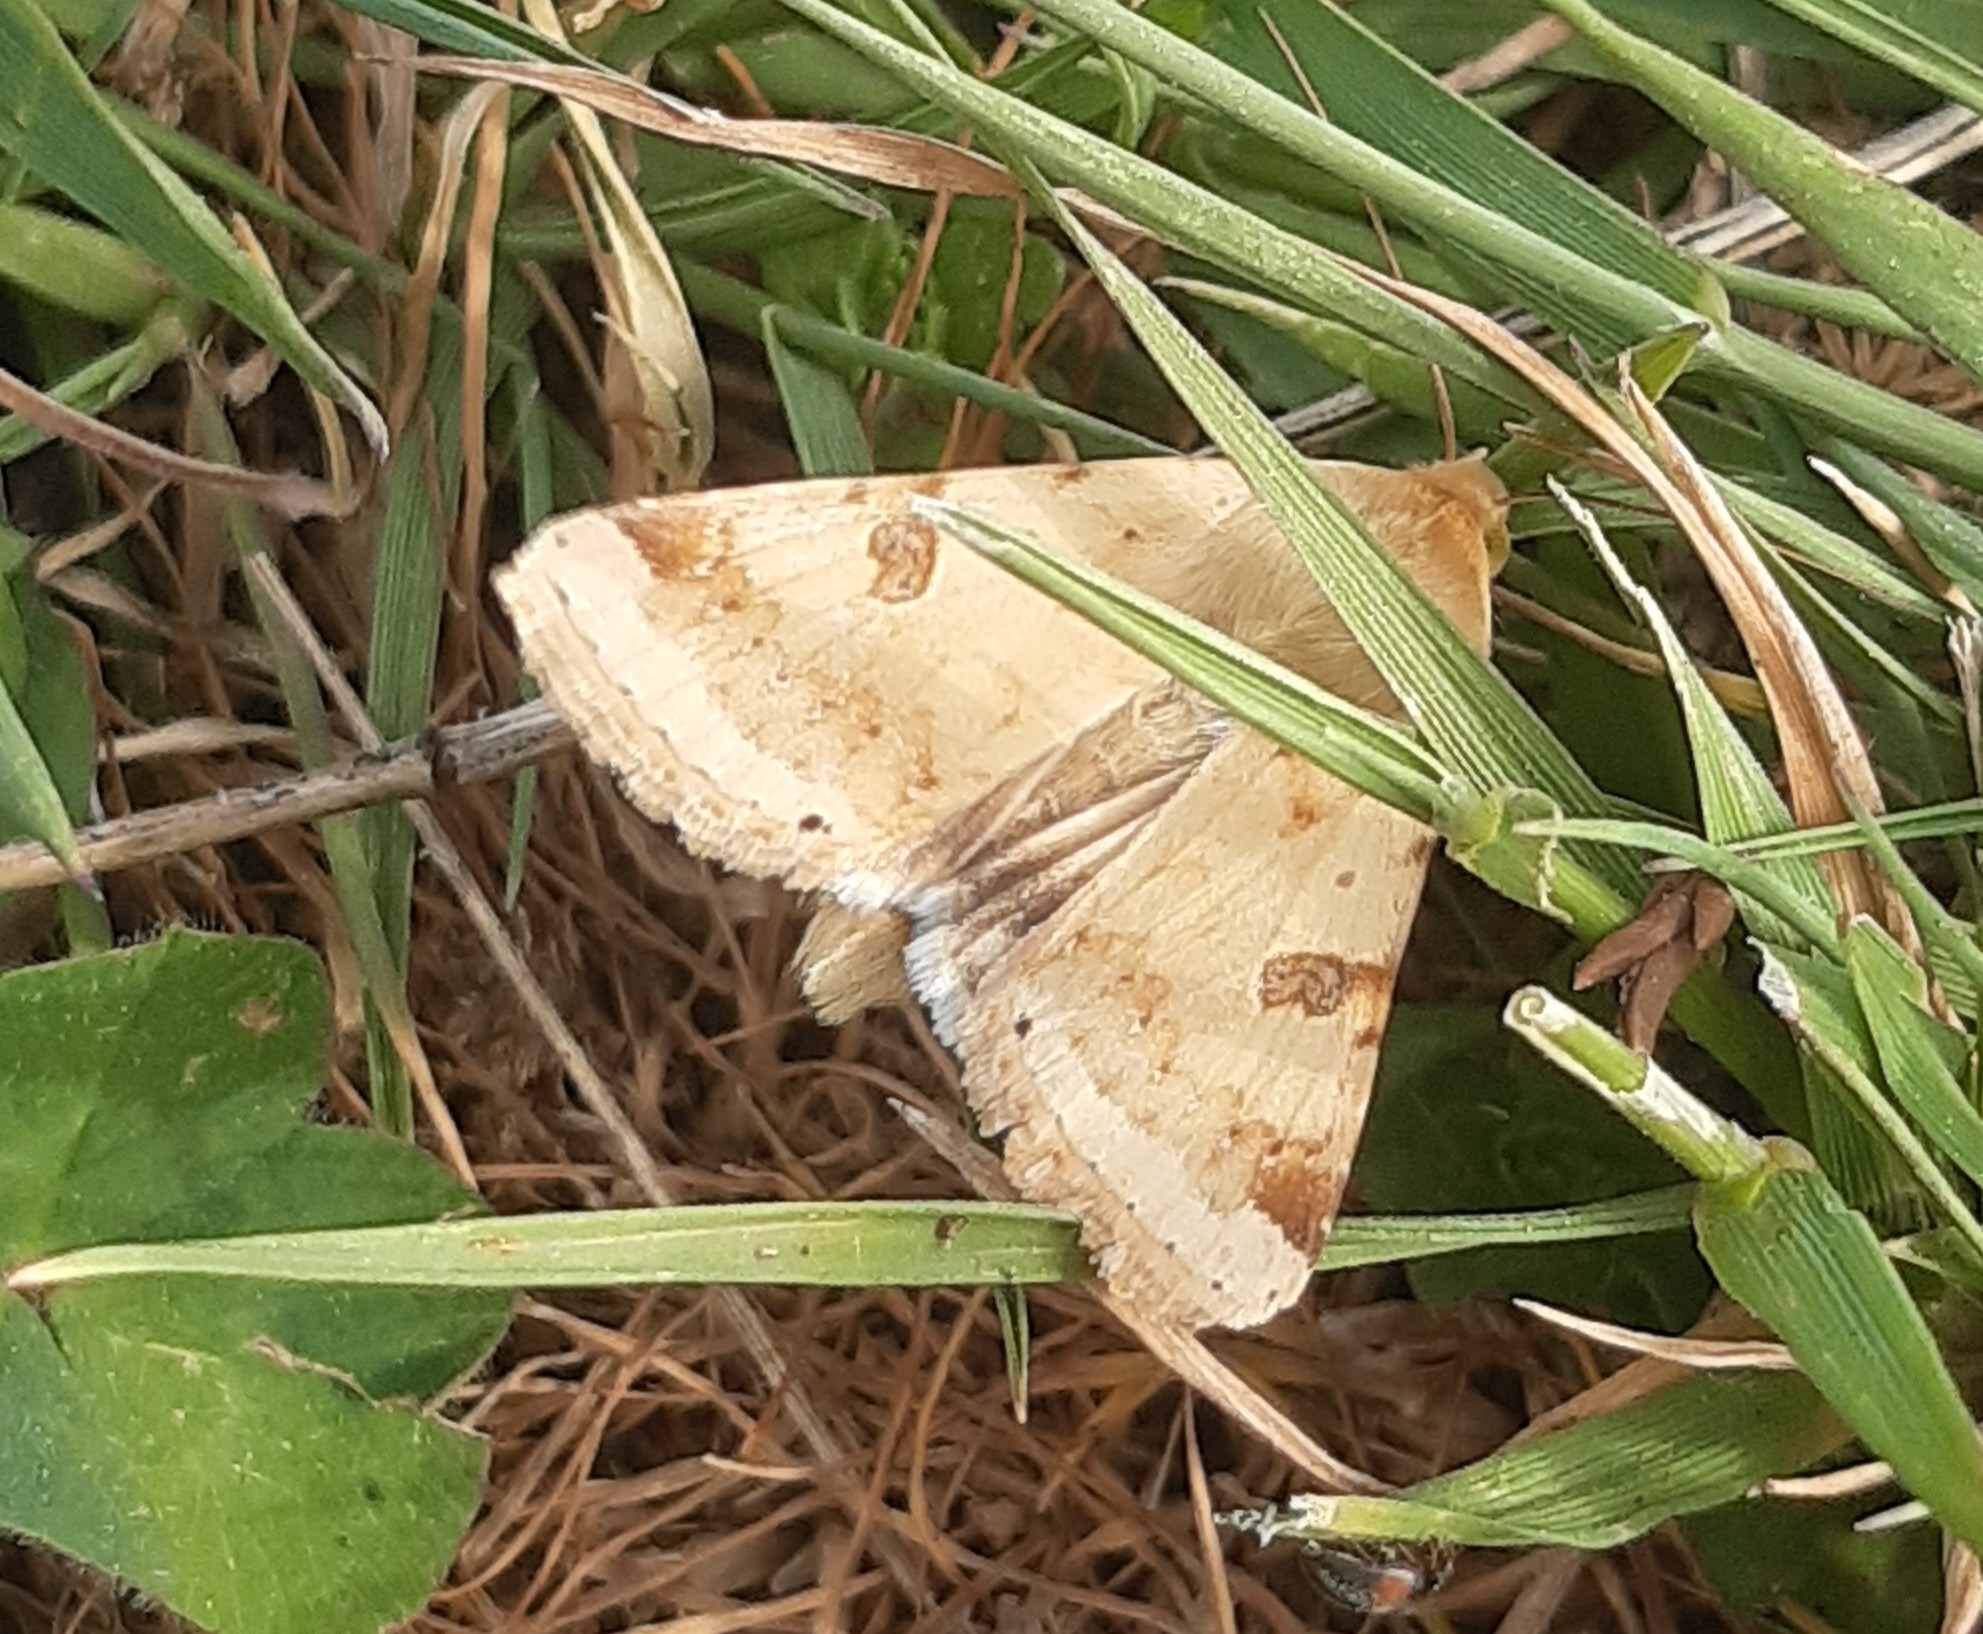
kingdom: Animalia
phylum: Arthropoda
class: Insecta
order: Lepidoptera
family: Noctuidae
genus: Heliothis
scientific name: Heliothis peltigera
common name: Bordered straw
